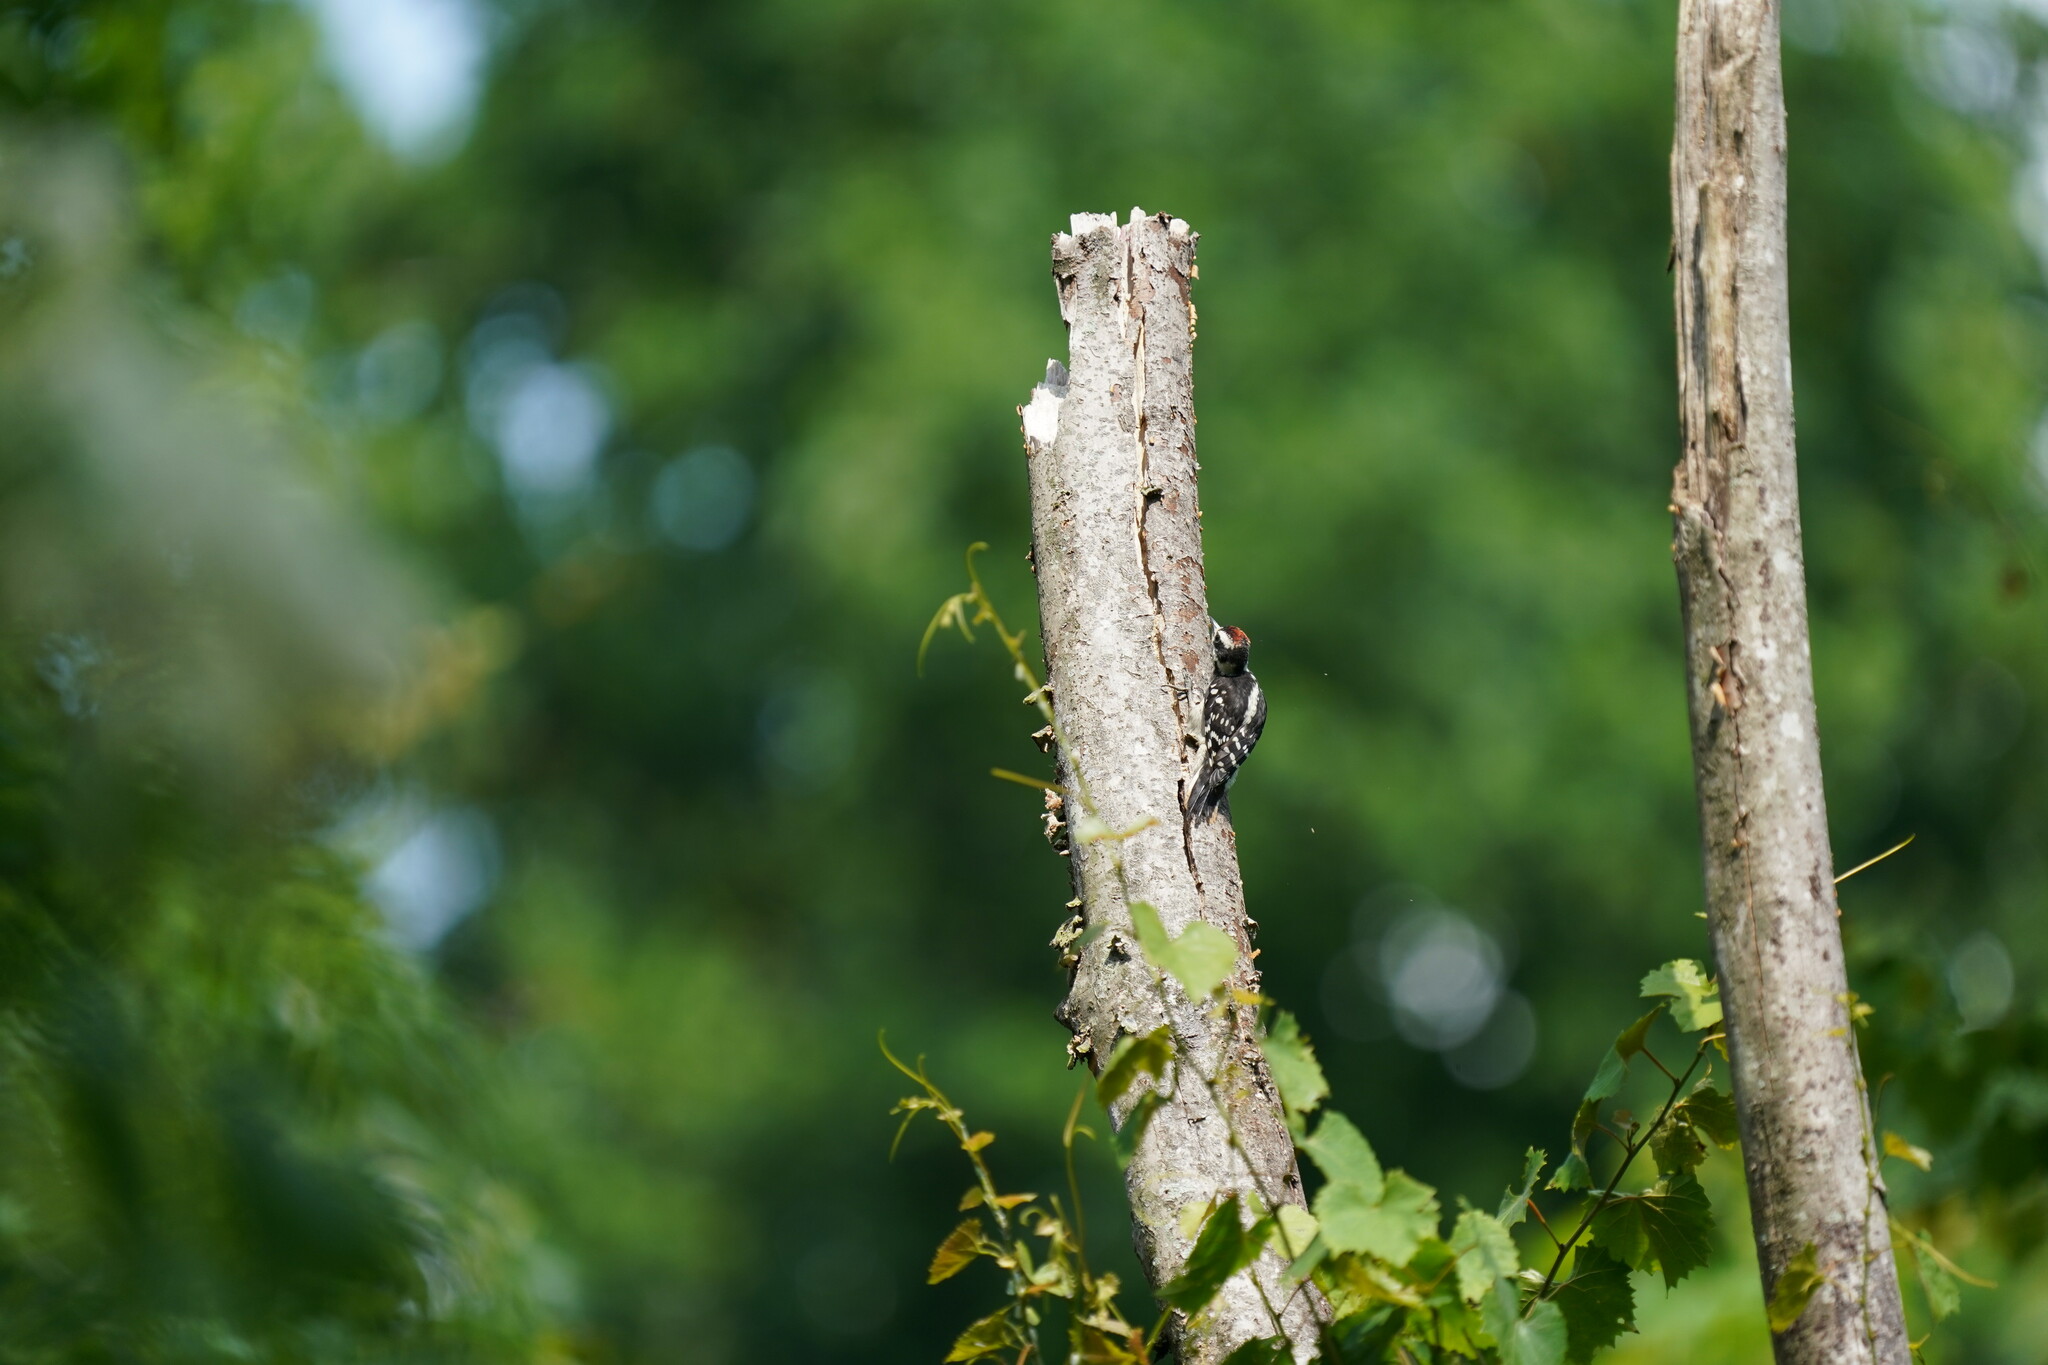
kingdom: Animalia
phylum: Chordata
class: Aves
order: Piciformes
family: Picidae
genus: Dryobates
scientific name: Dryobates pubescens
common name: Downy woodpecker
